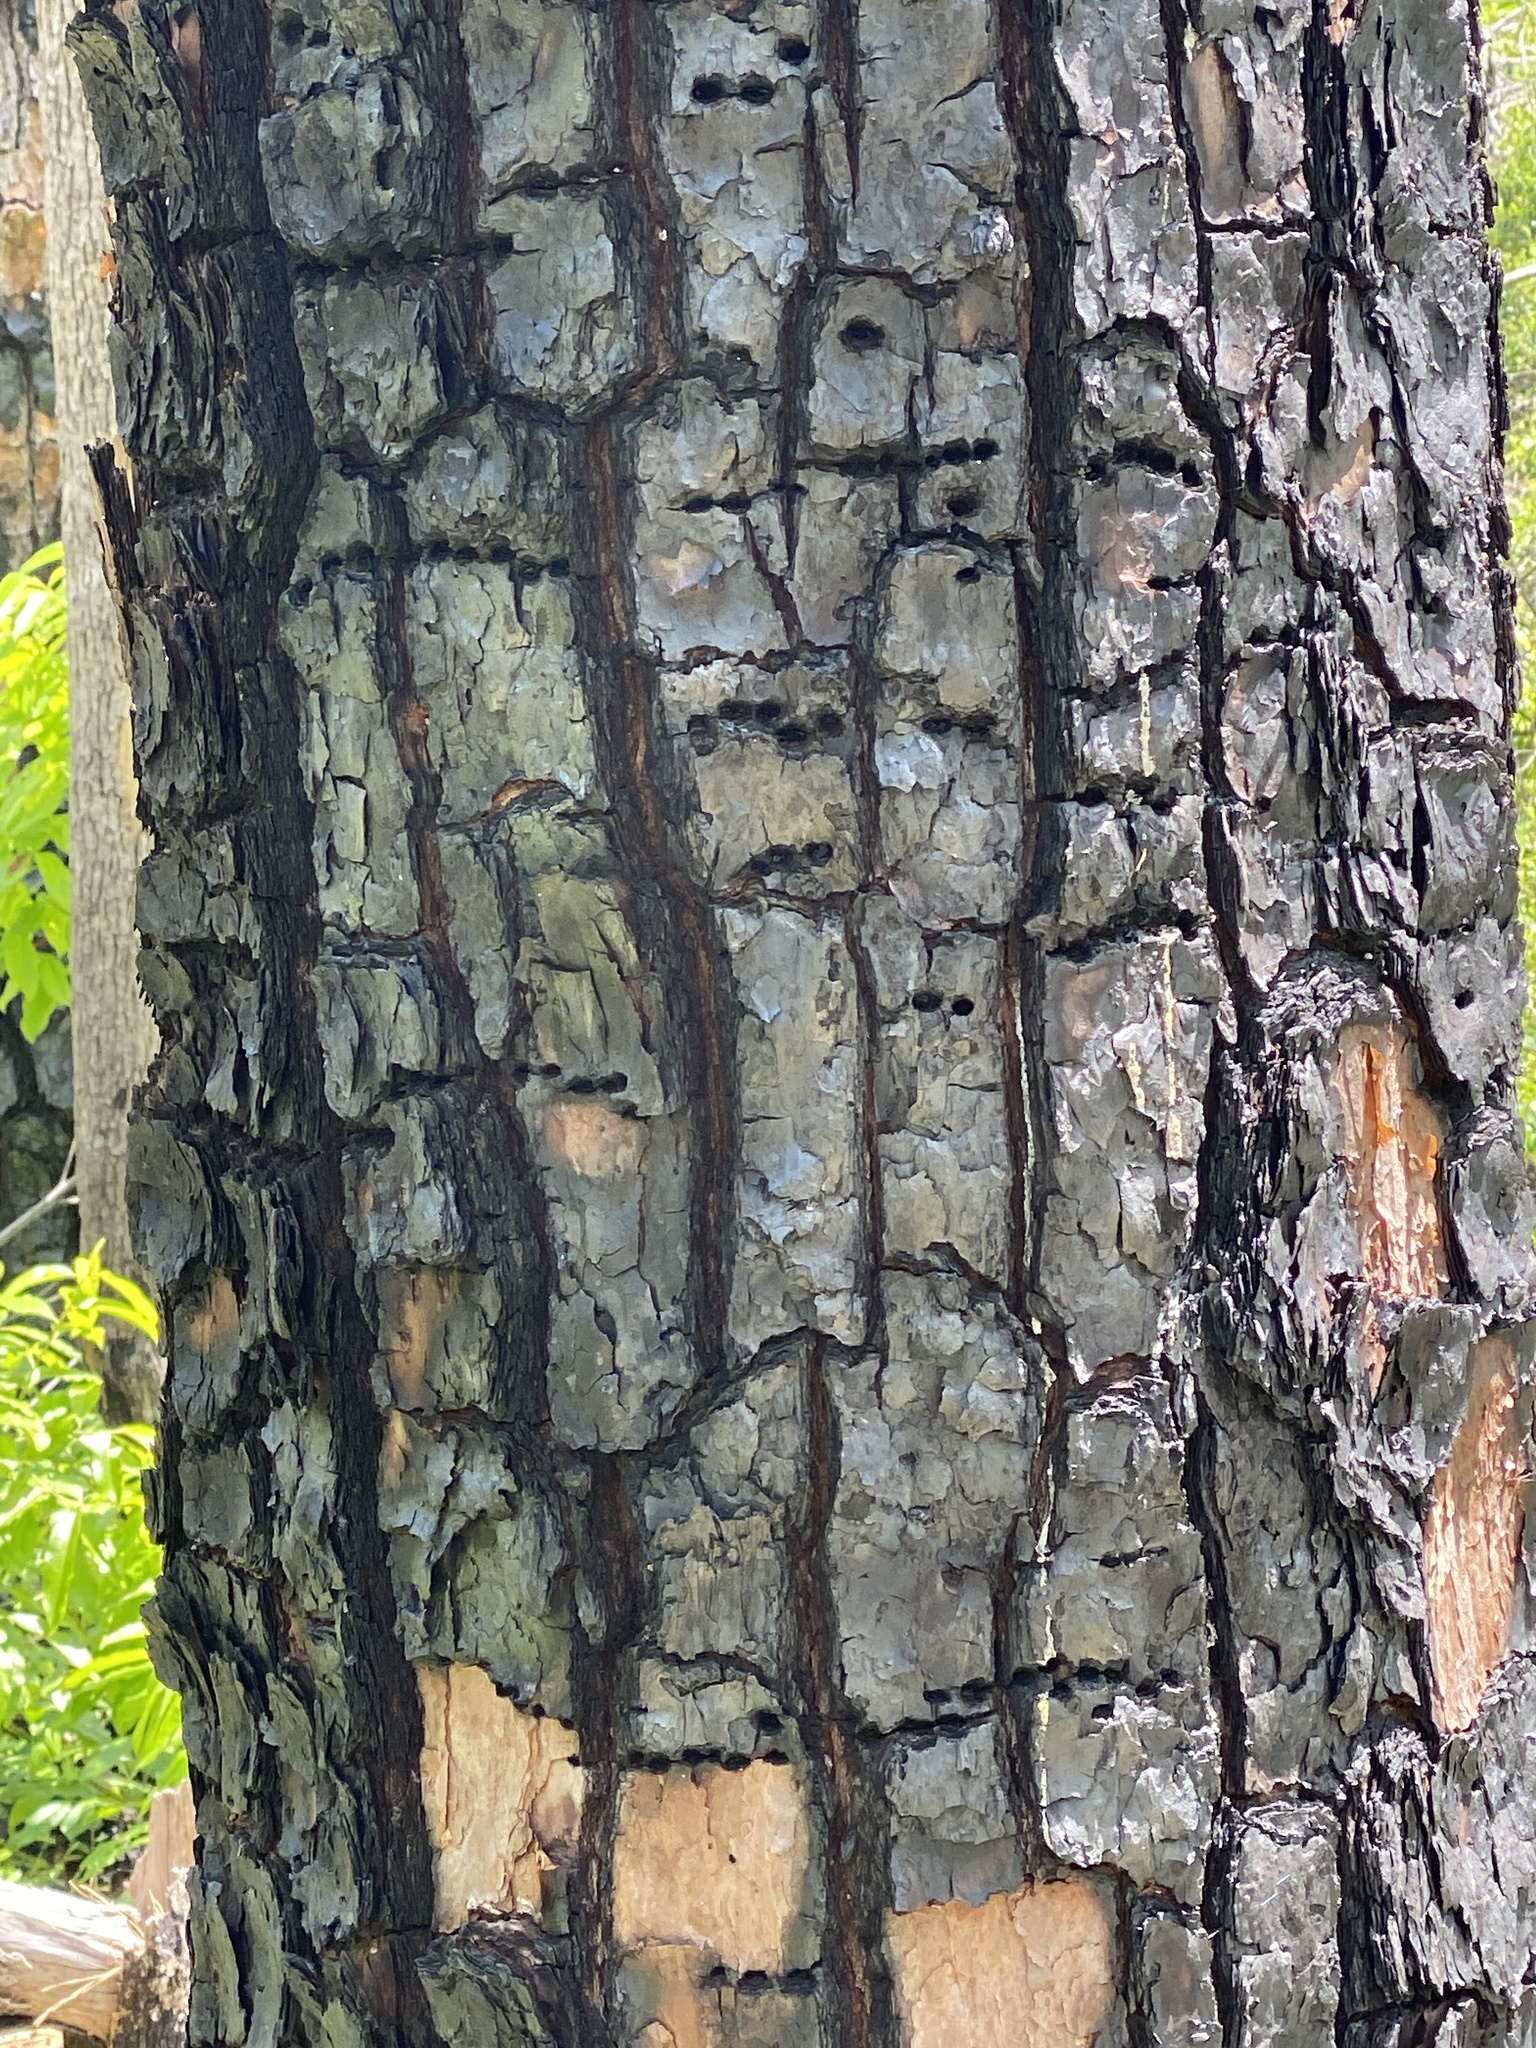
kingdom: Animalia
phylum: Chordata
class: Aves
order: Piciformes
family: Picidae
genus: Sphyrapicus
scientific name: Sphyrapicus varius
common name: Yellow-bellied sapsucker
